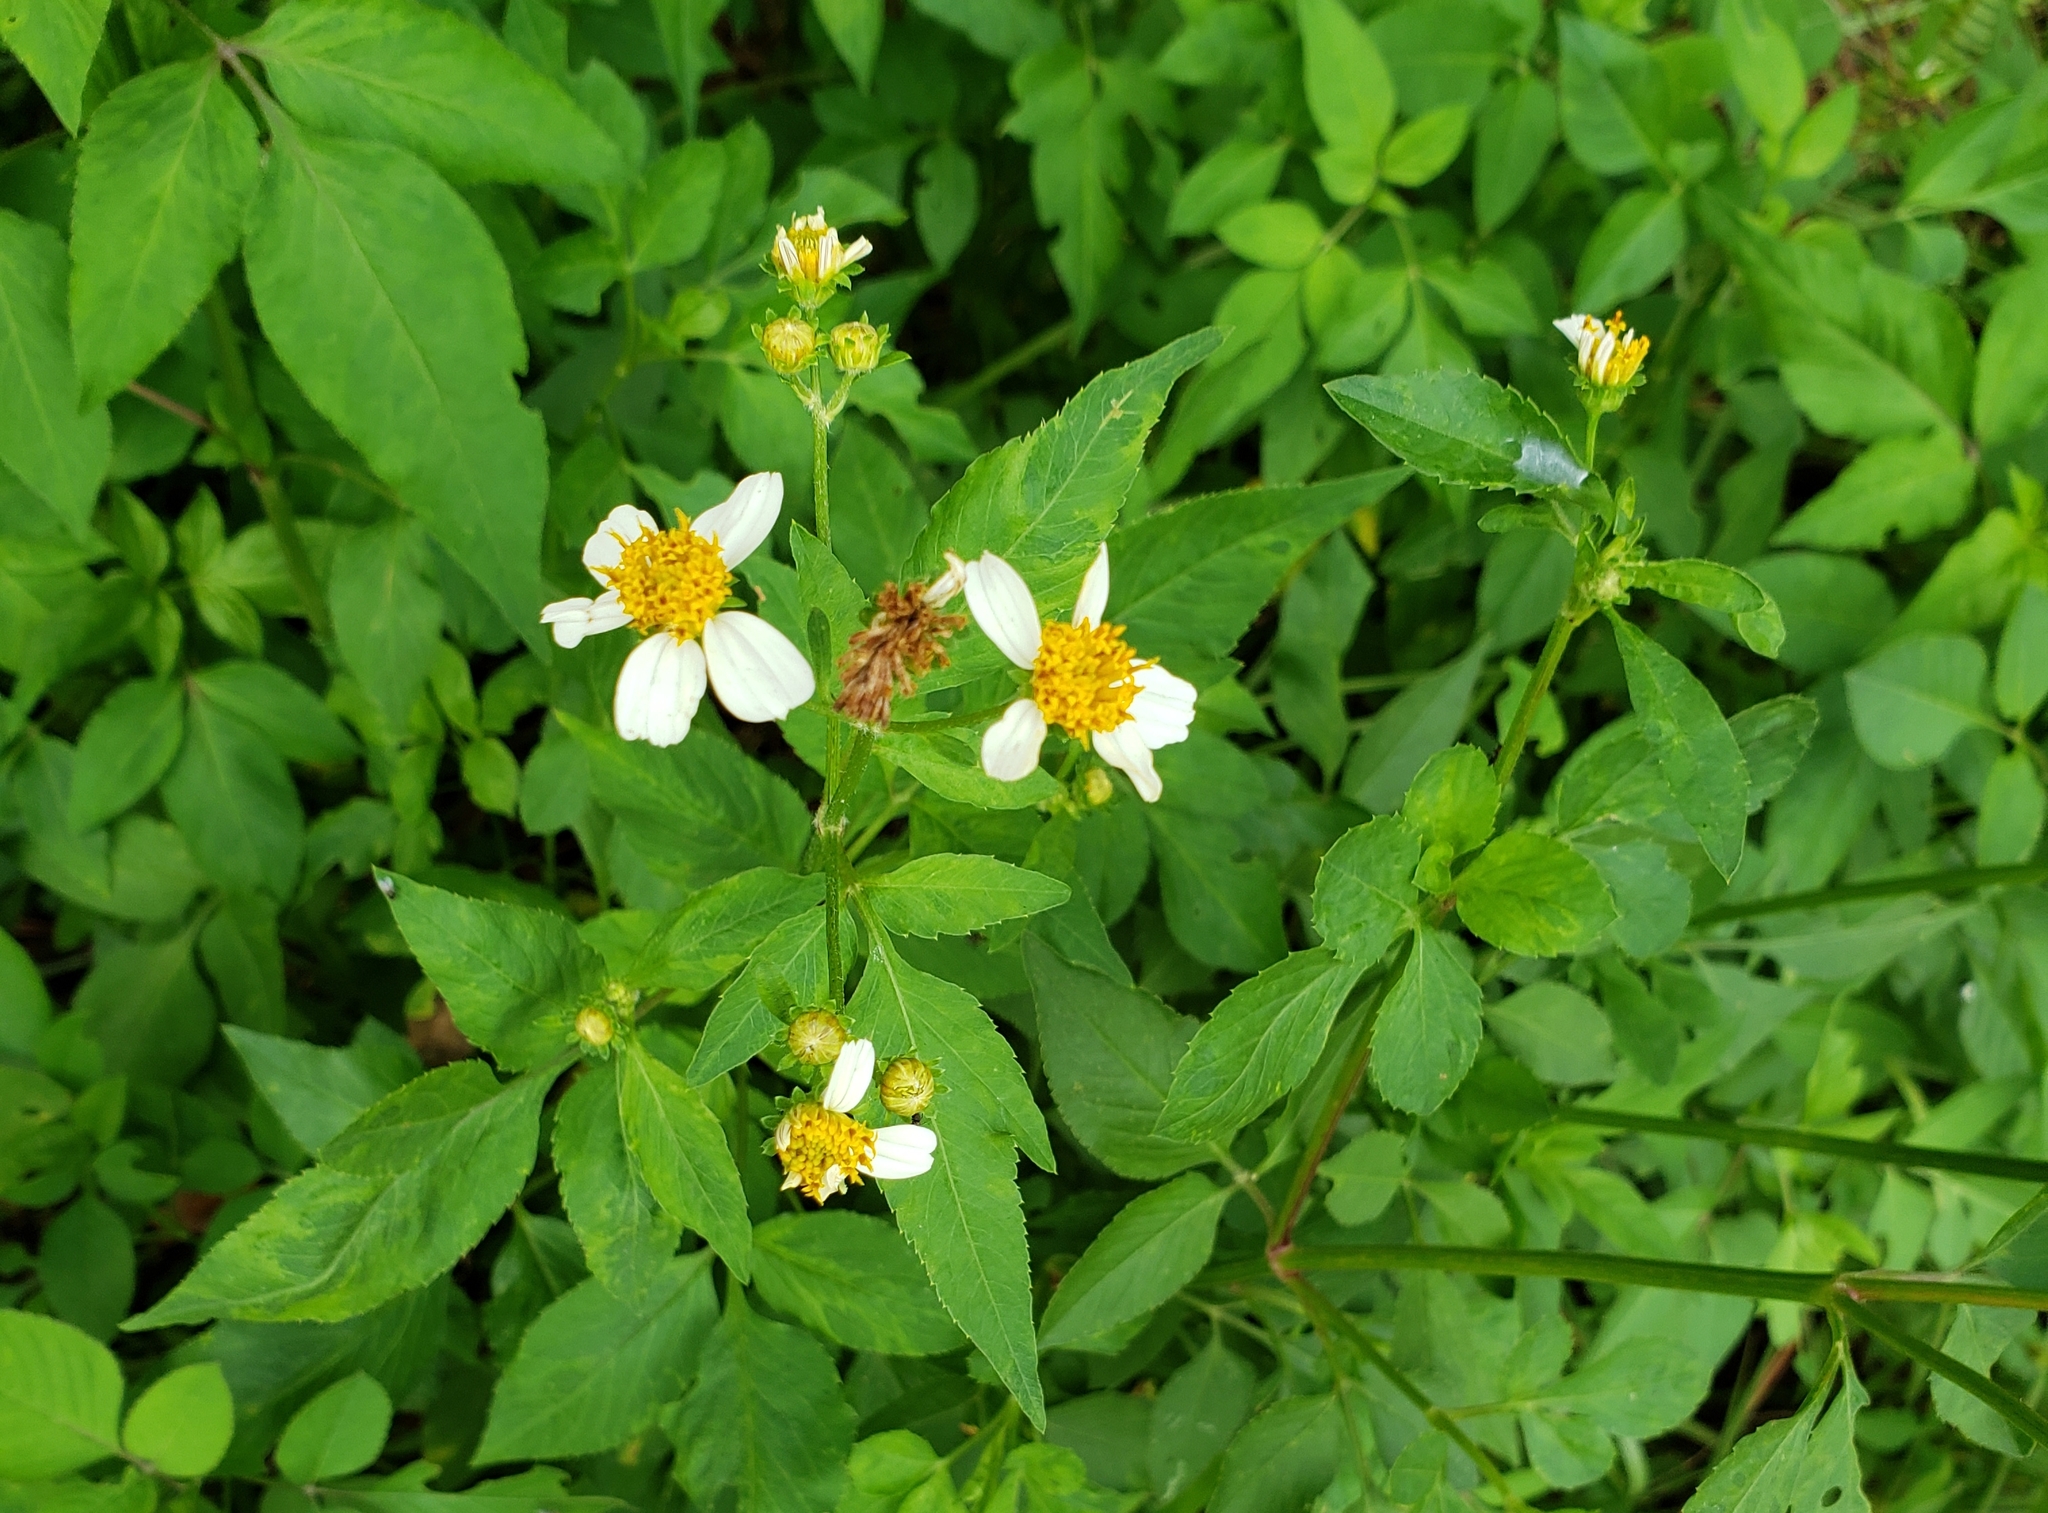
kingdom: Animalia
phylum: Arthropoda
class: Insecta
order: Diptera
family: Tephritidae
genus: Xanthaciura
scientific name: Xanthaciura insecta
